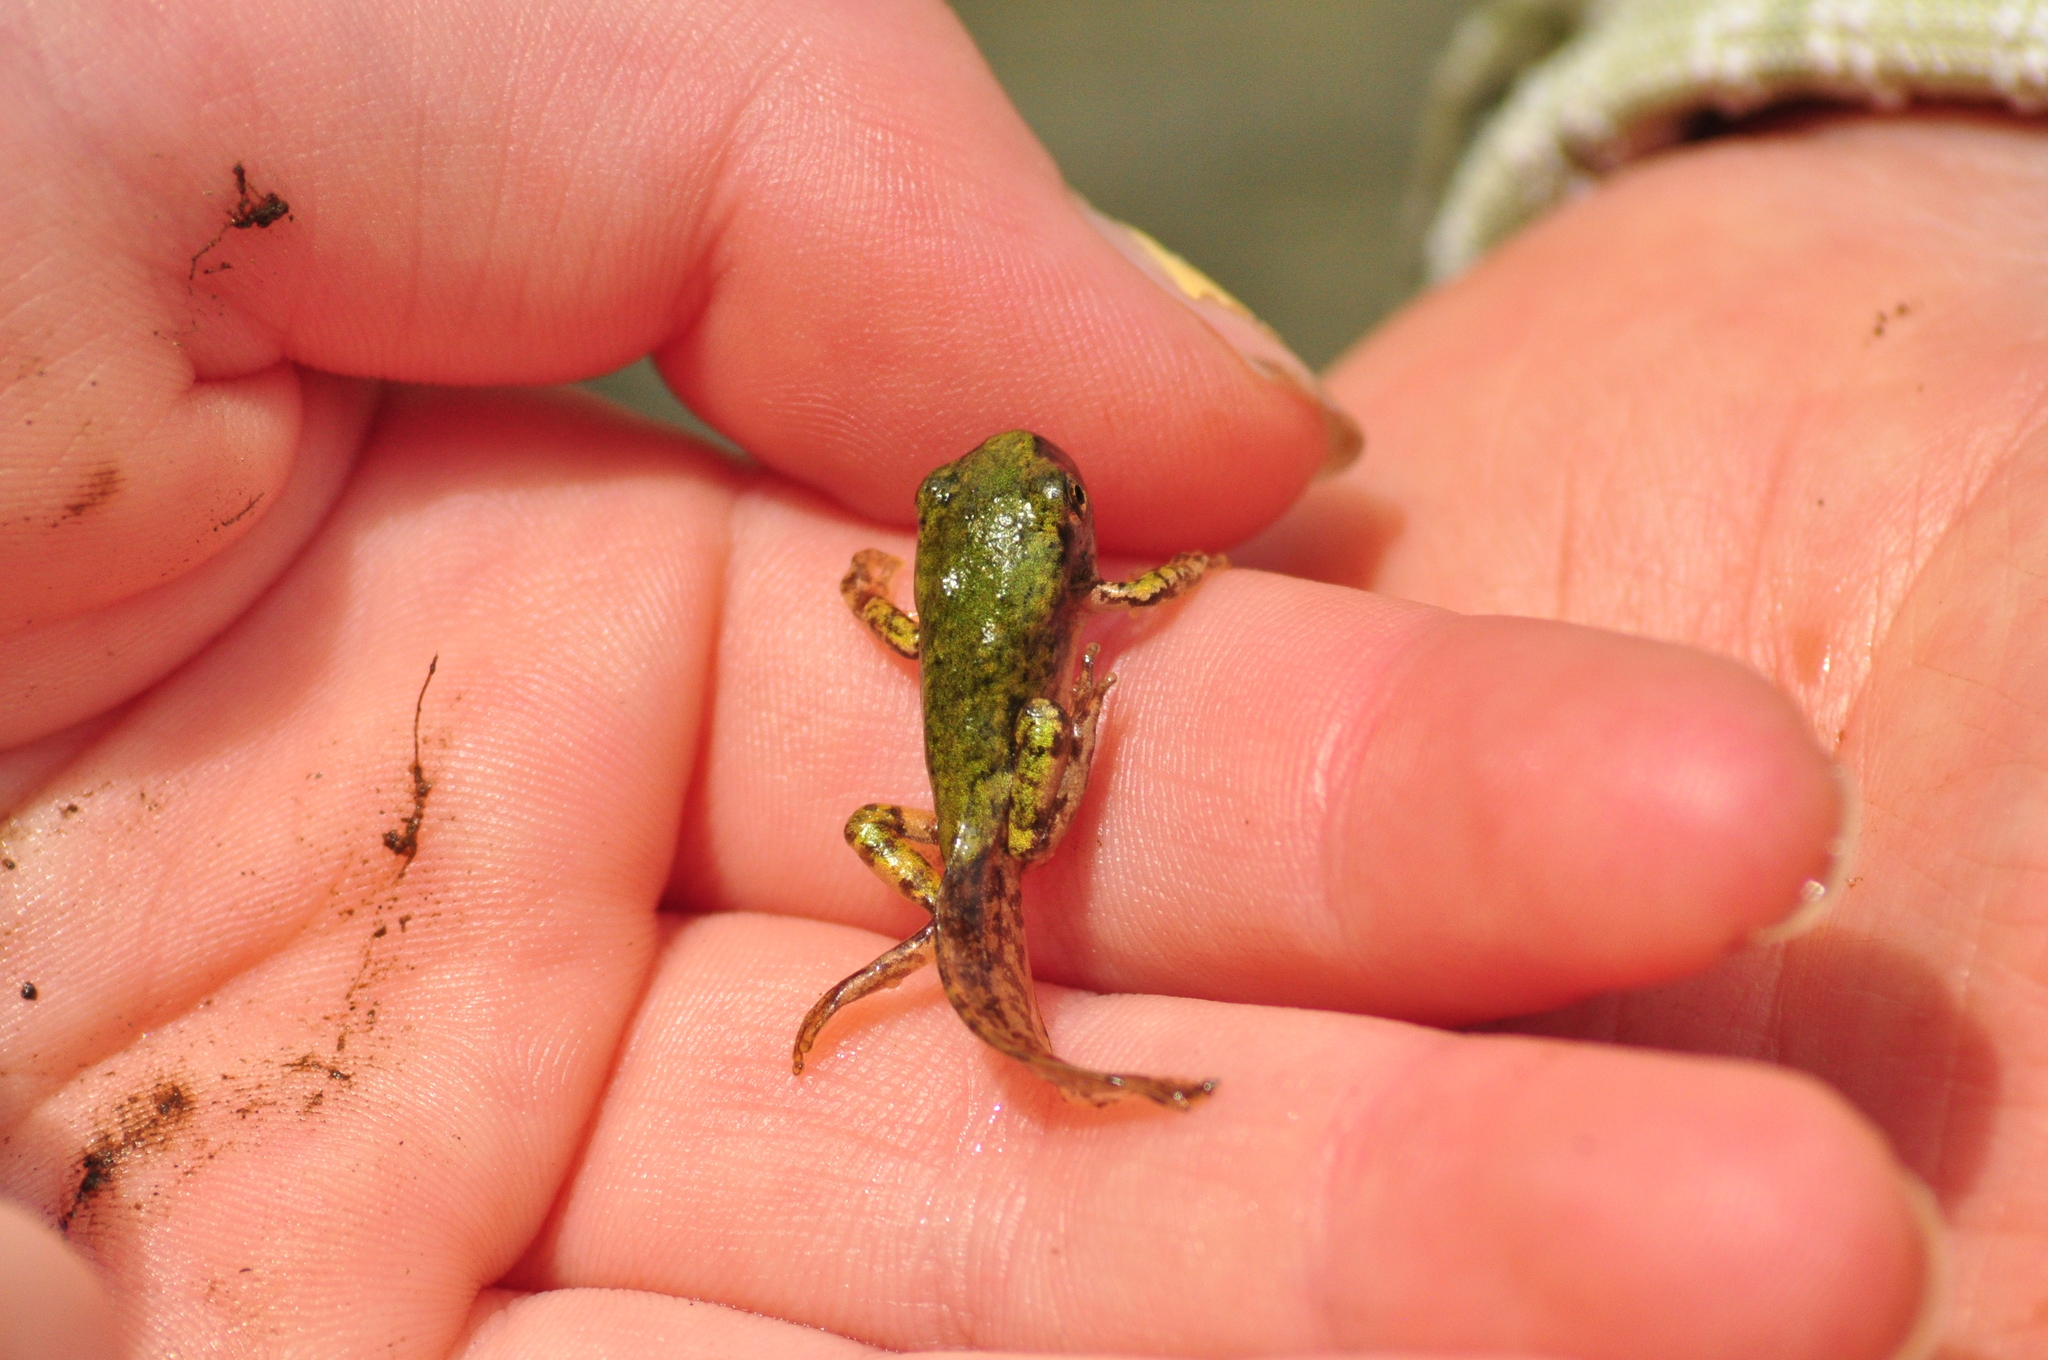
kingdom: Animalia
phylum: Chordata
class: Amphibia
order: Anura
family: Hylidae
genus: Dryophytes
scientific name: Dryophytes versicolor
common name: Gray treefrog
